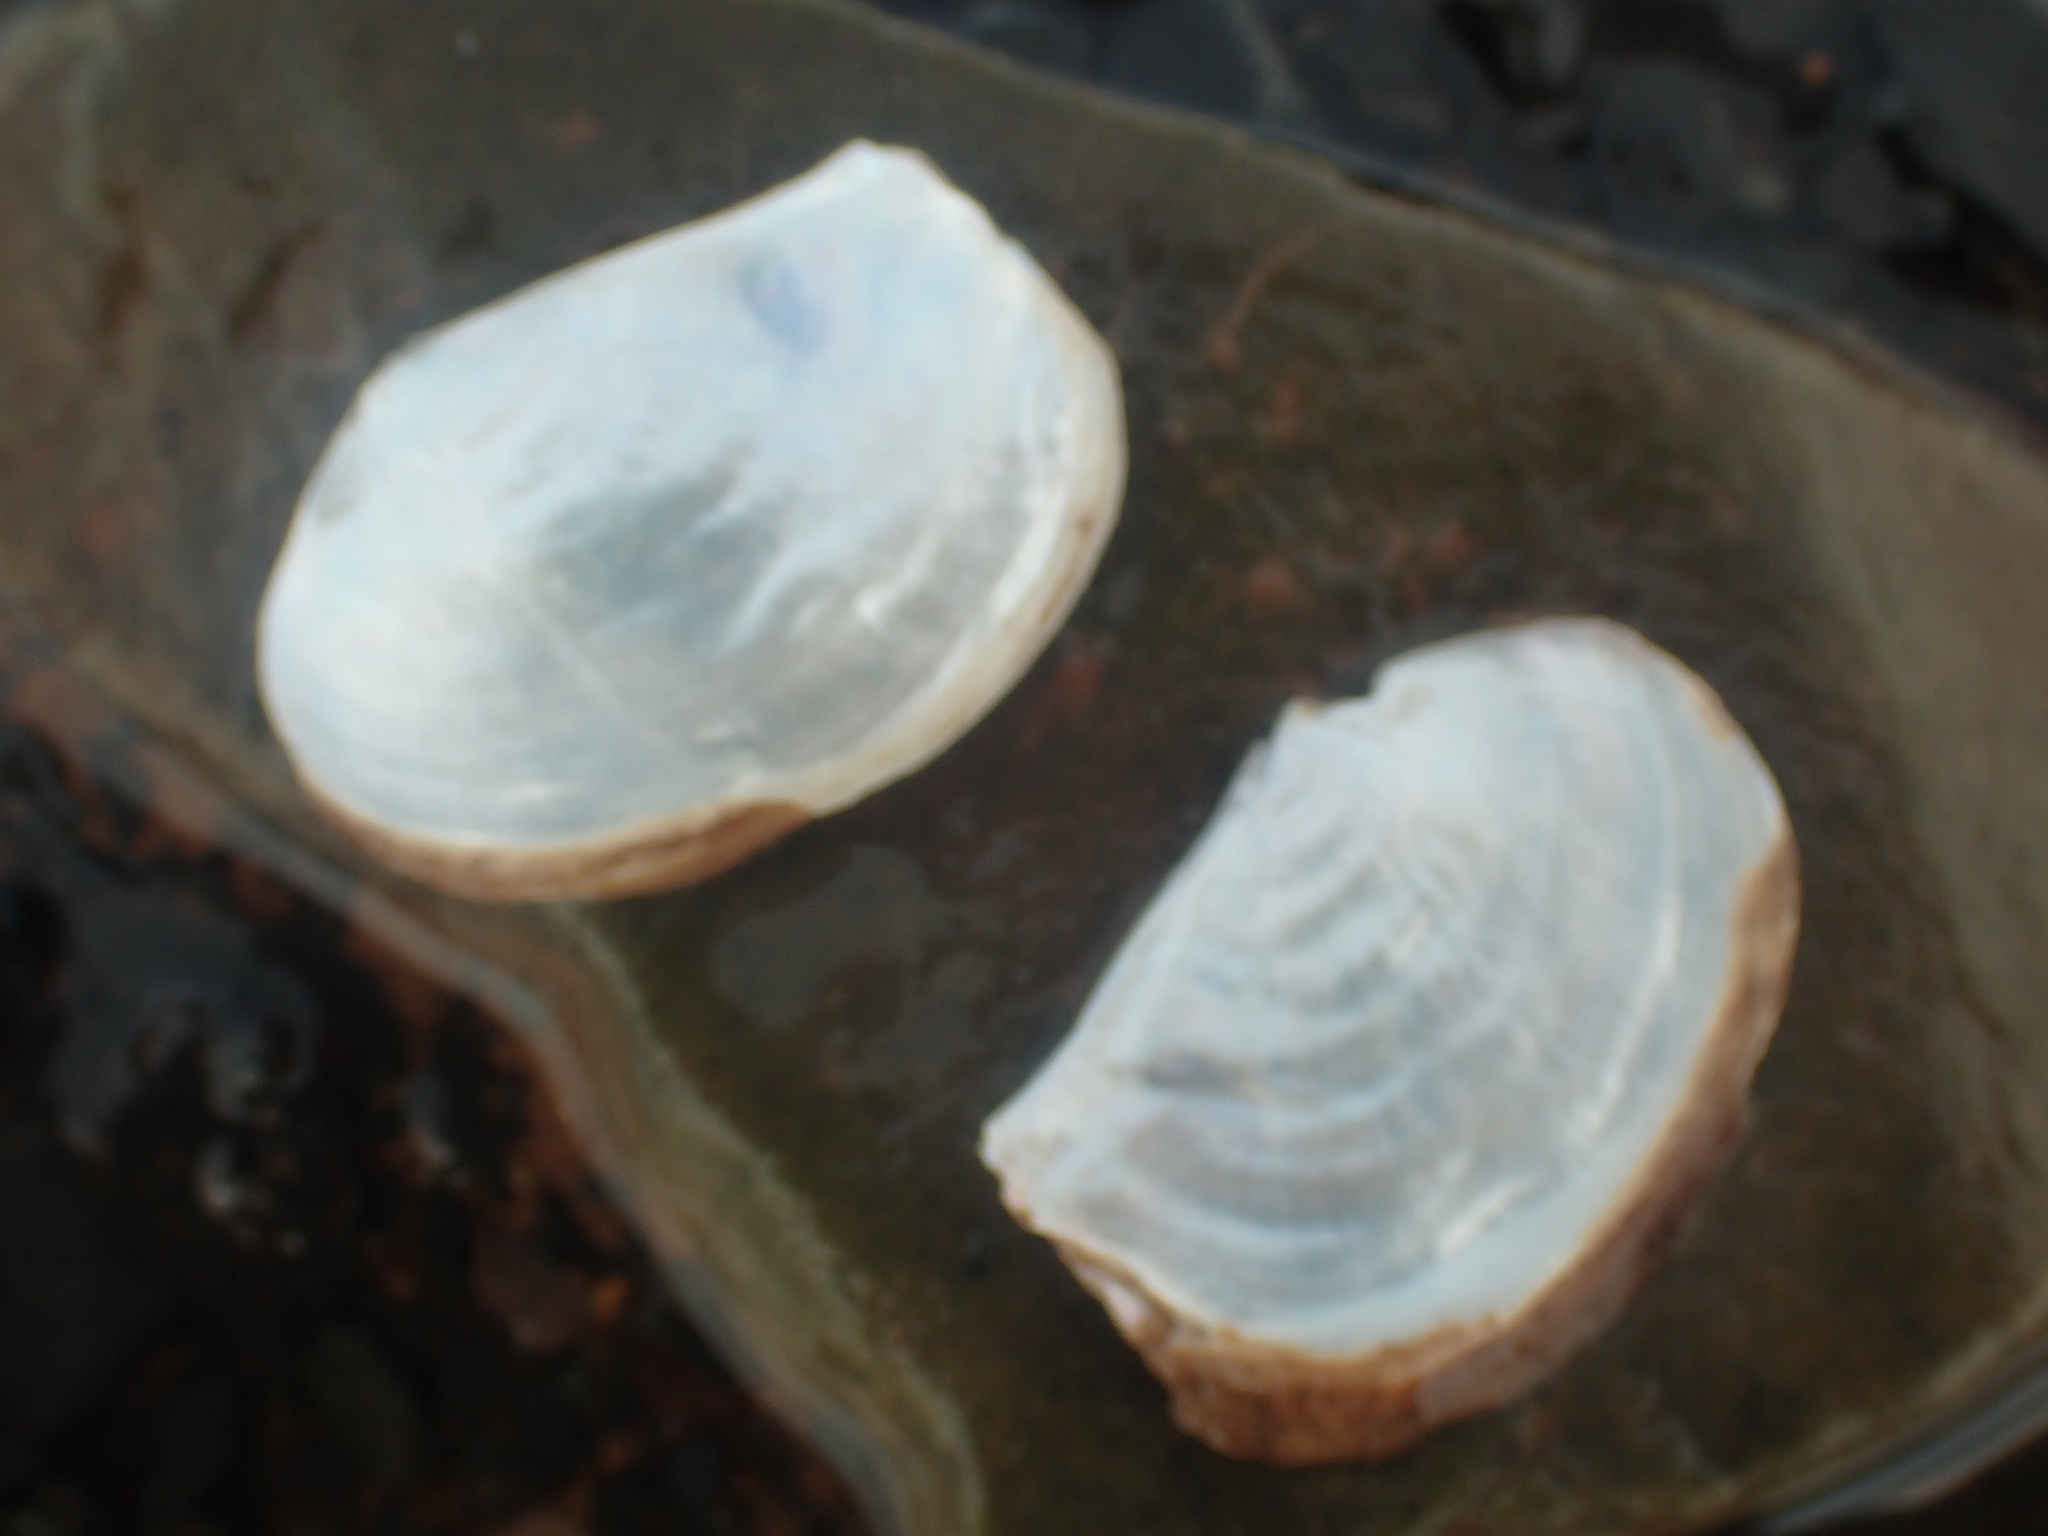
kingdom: Animalia
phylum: Mollusca
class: Bivalvia
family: Pandoridae
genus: Pandora
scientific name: Pandora gouldiana
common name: Rounded pandora
